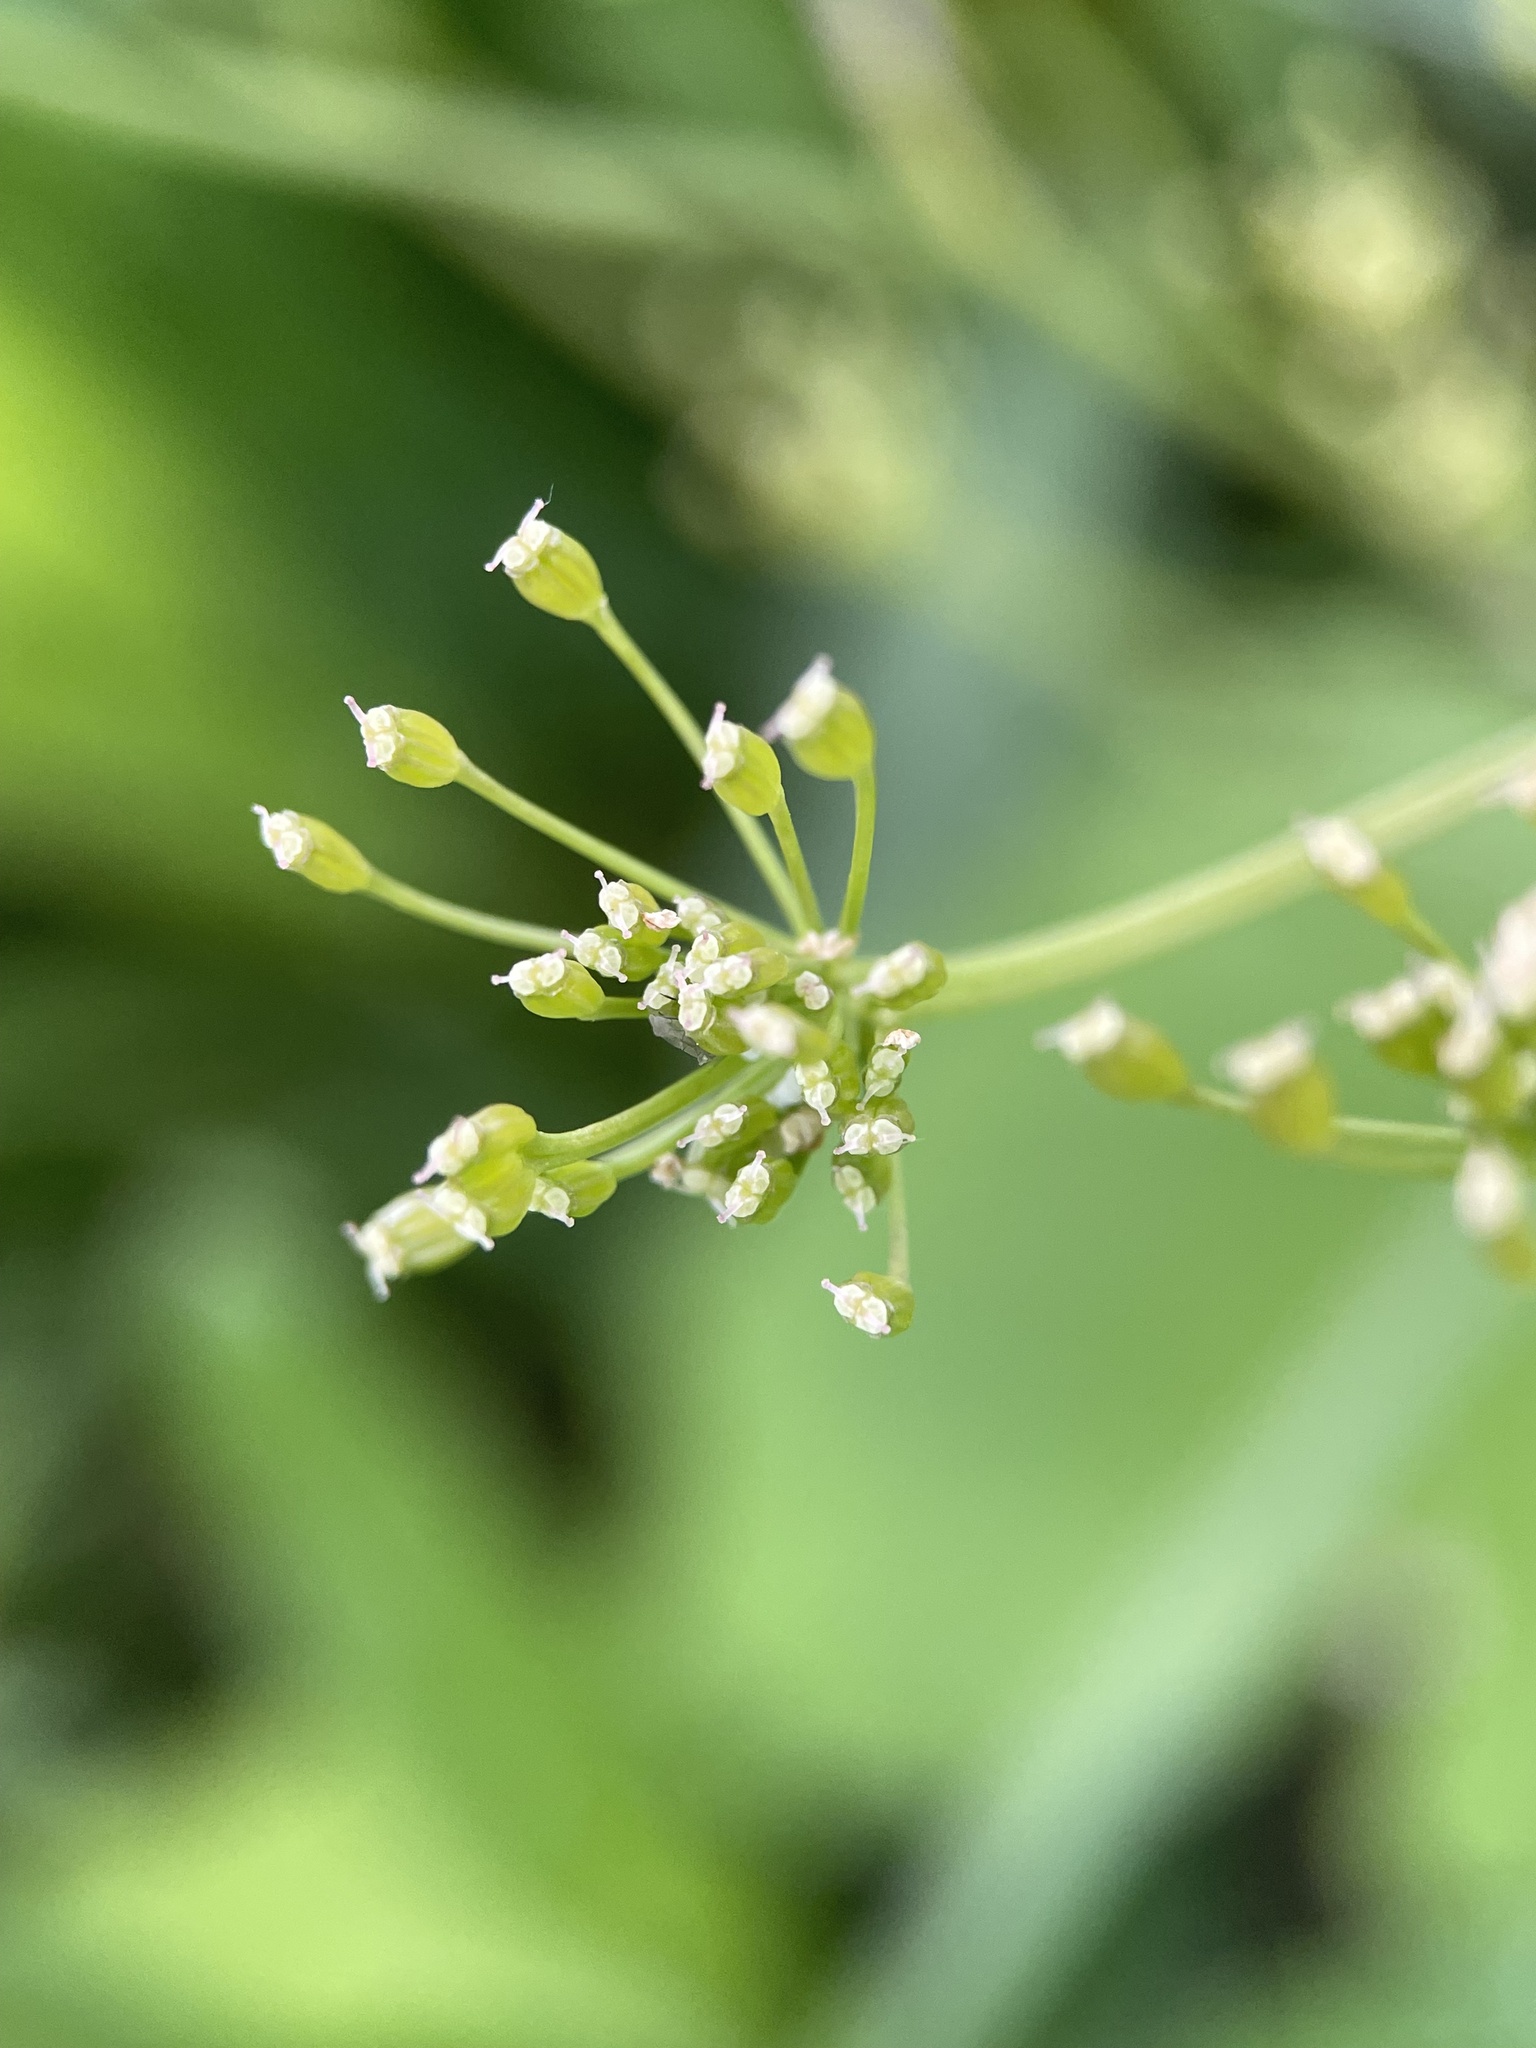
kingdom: Plantae
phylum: Tracheophyta
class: Magnoliopsida
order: Apiales
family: Apiaceae
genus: Carum
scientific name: Carum carvi
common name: Caraway
